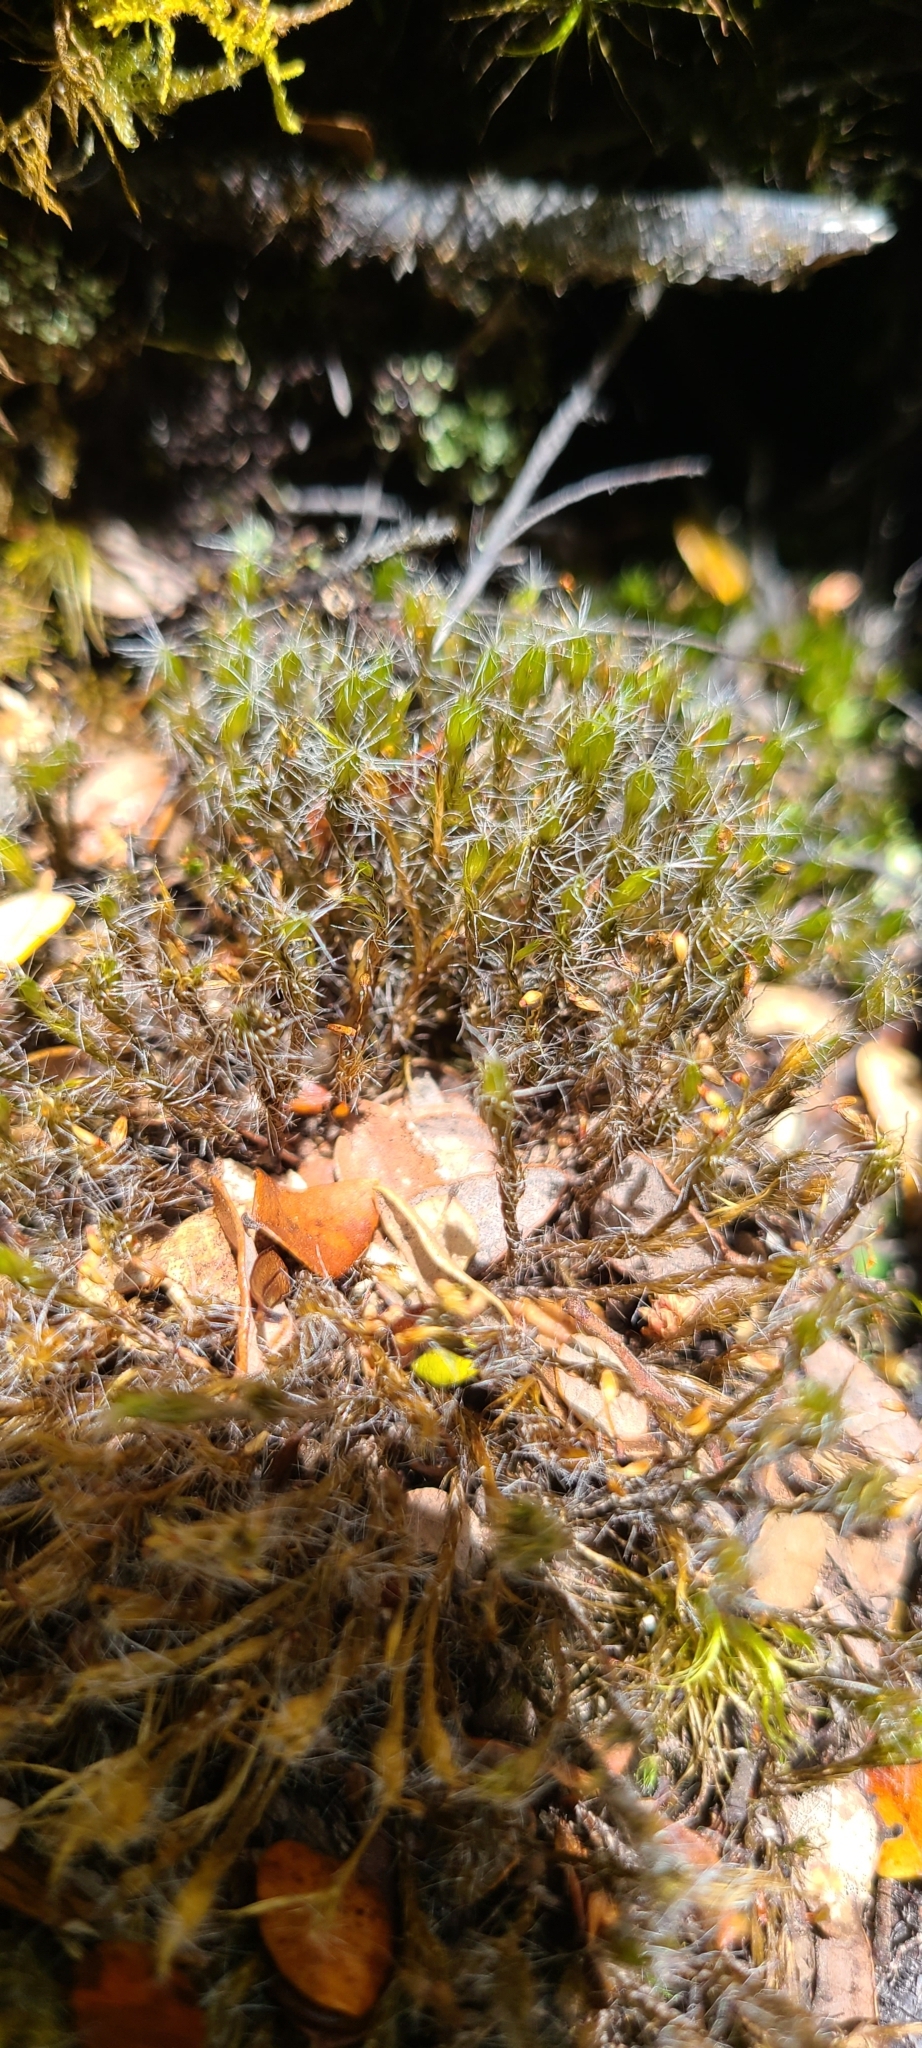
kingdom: Plantae
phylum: Bryophyta
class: Bryopsida
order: Dicranales
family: Leucobryaceae
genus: Campylopus
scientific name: Campylopus introflexus
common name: Heath star moss
